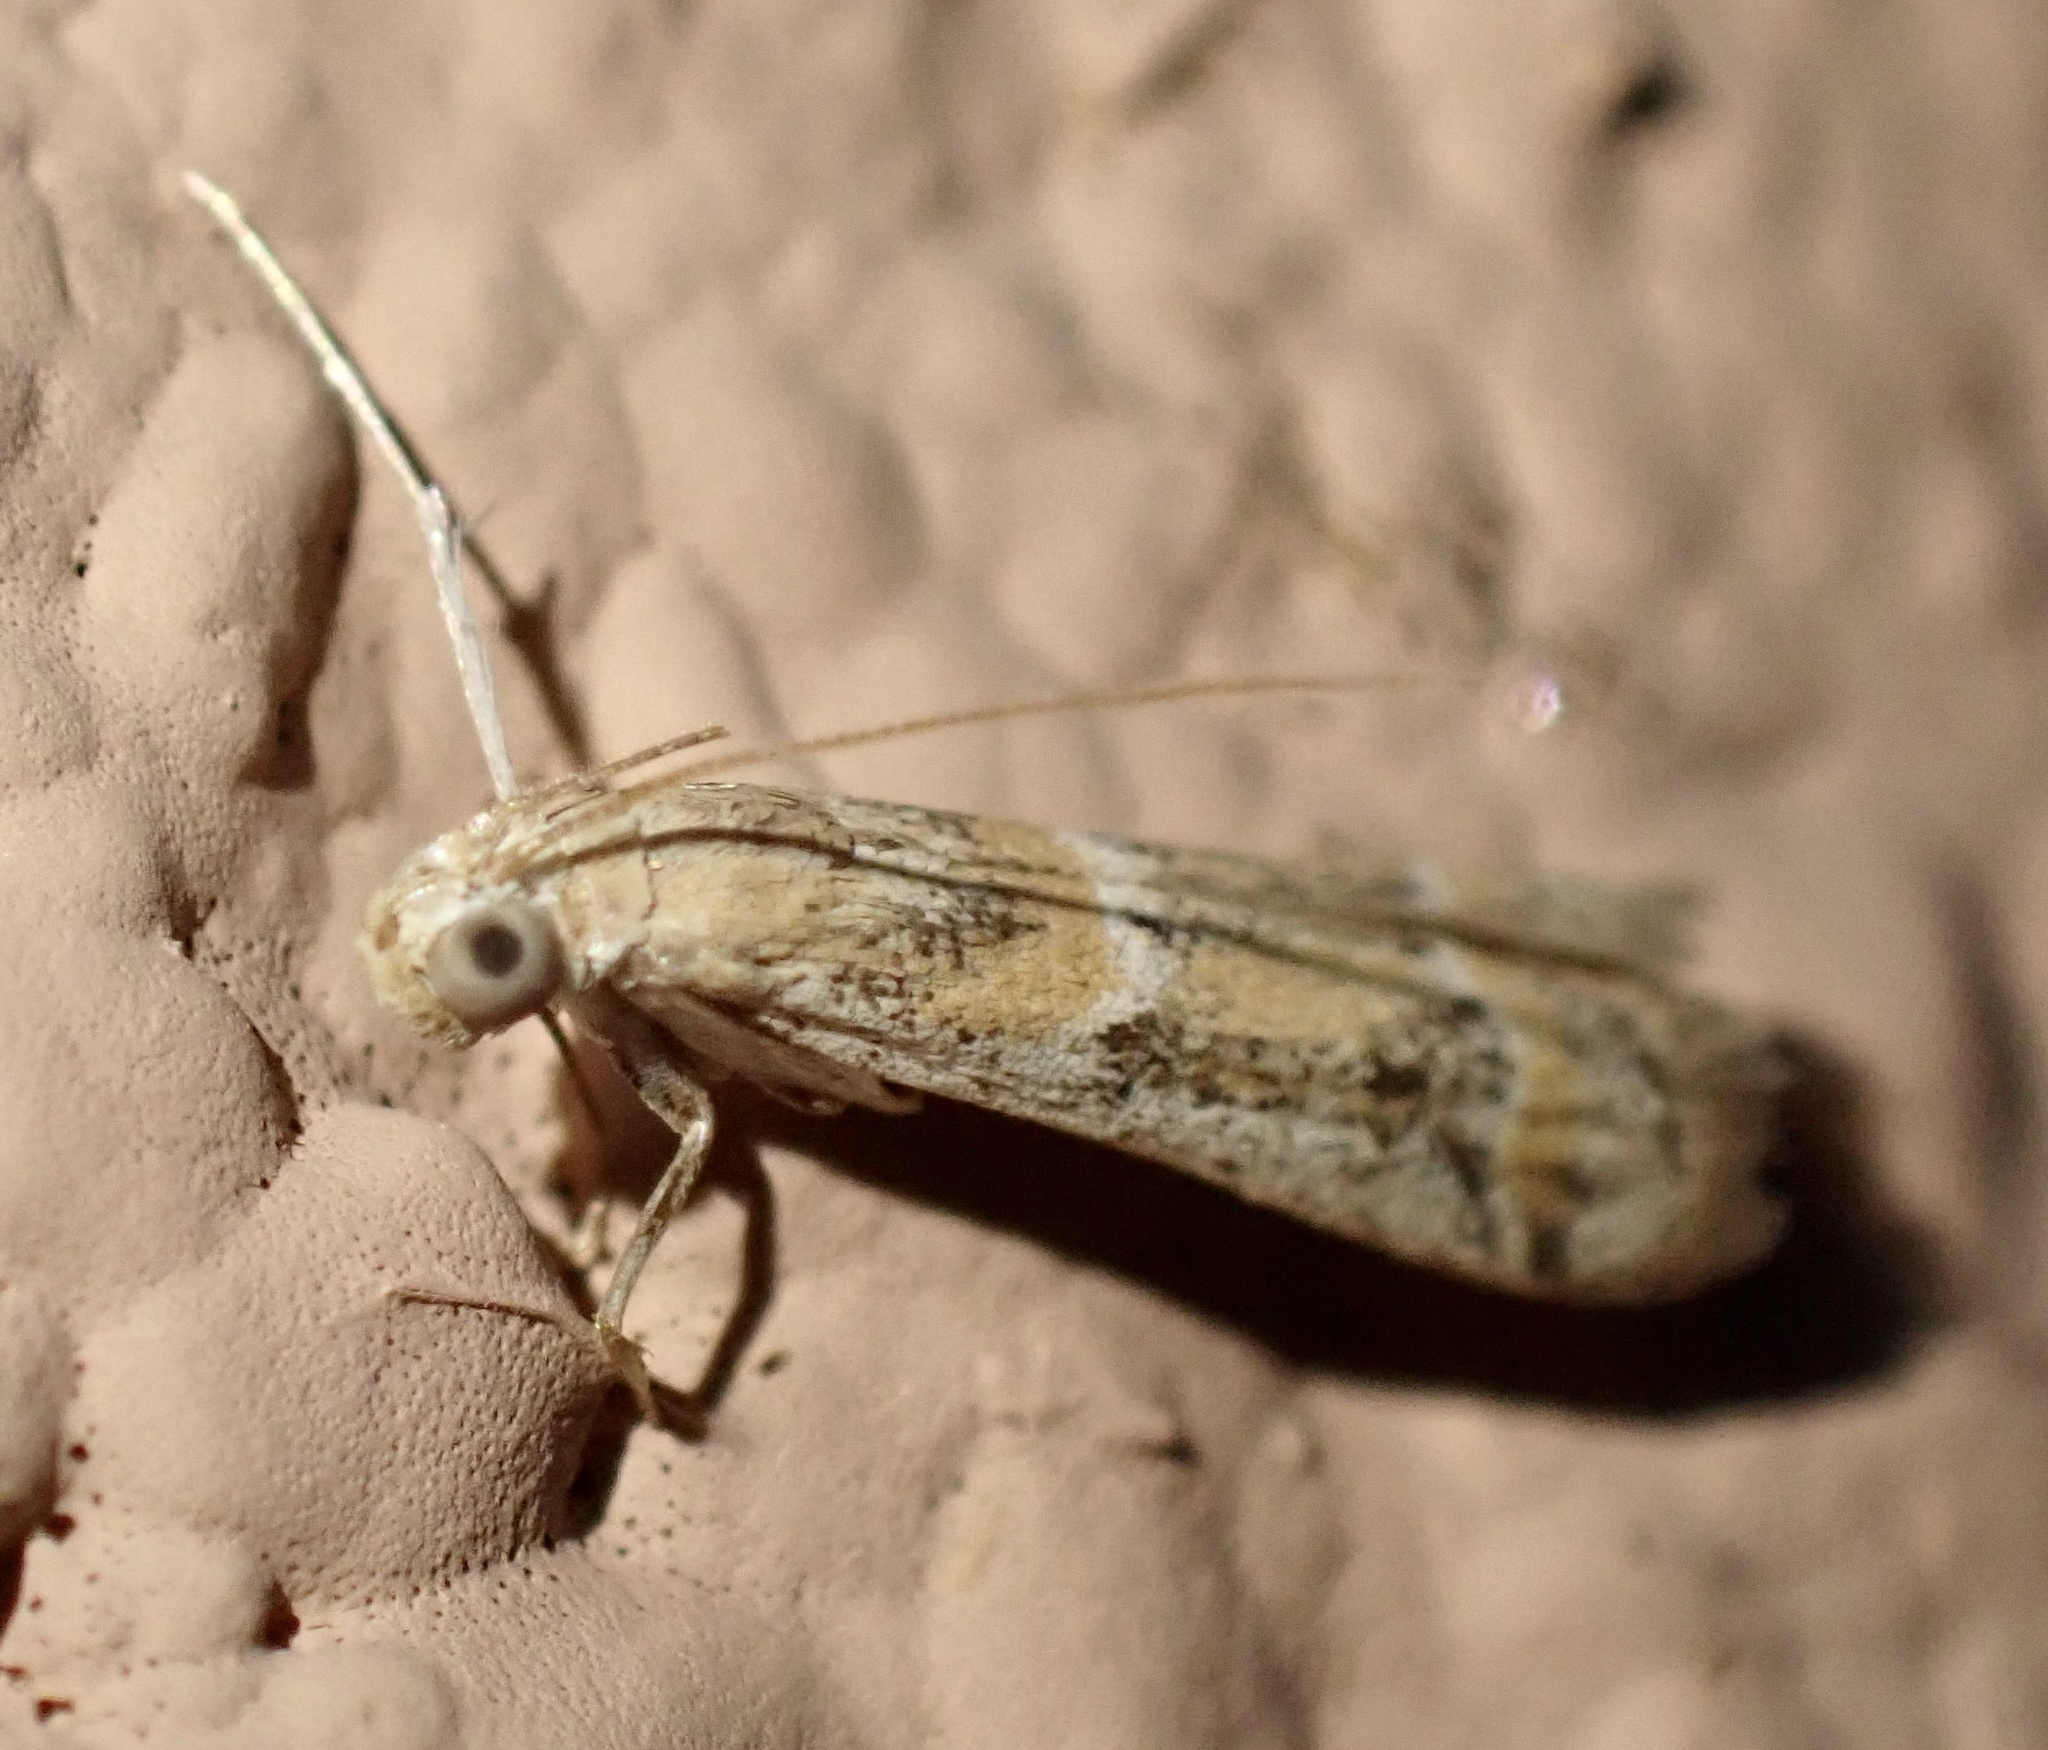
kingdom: Animalia
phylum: Arthropoda
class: Insecta
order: Lepidoptera
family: Pyralidae
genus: Ancylosis
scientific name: Ancylosis samaritanella
